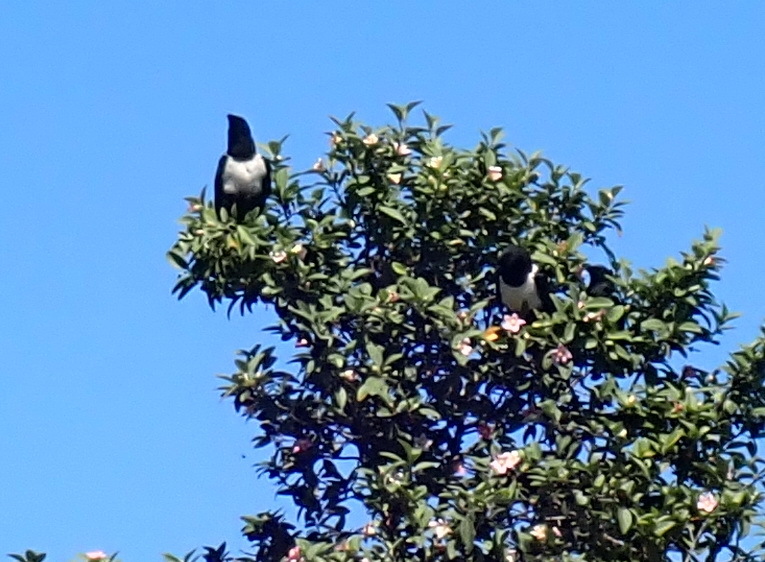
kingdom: Animalia
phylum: Chordata
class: Aves
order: Passeriformes
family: Corvidae
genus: Corvus
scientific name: Corvus albus
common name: Pied crow
